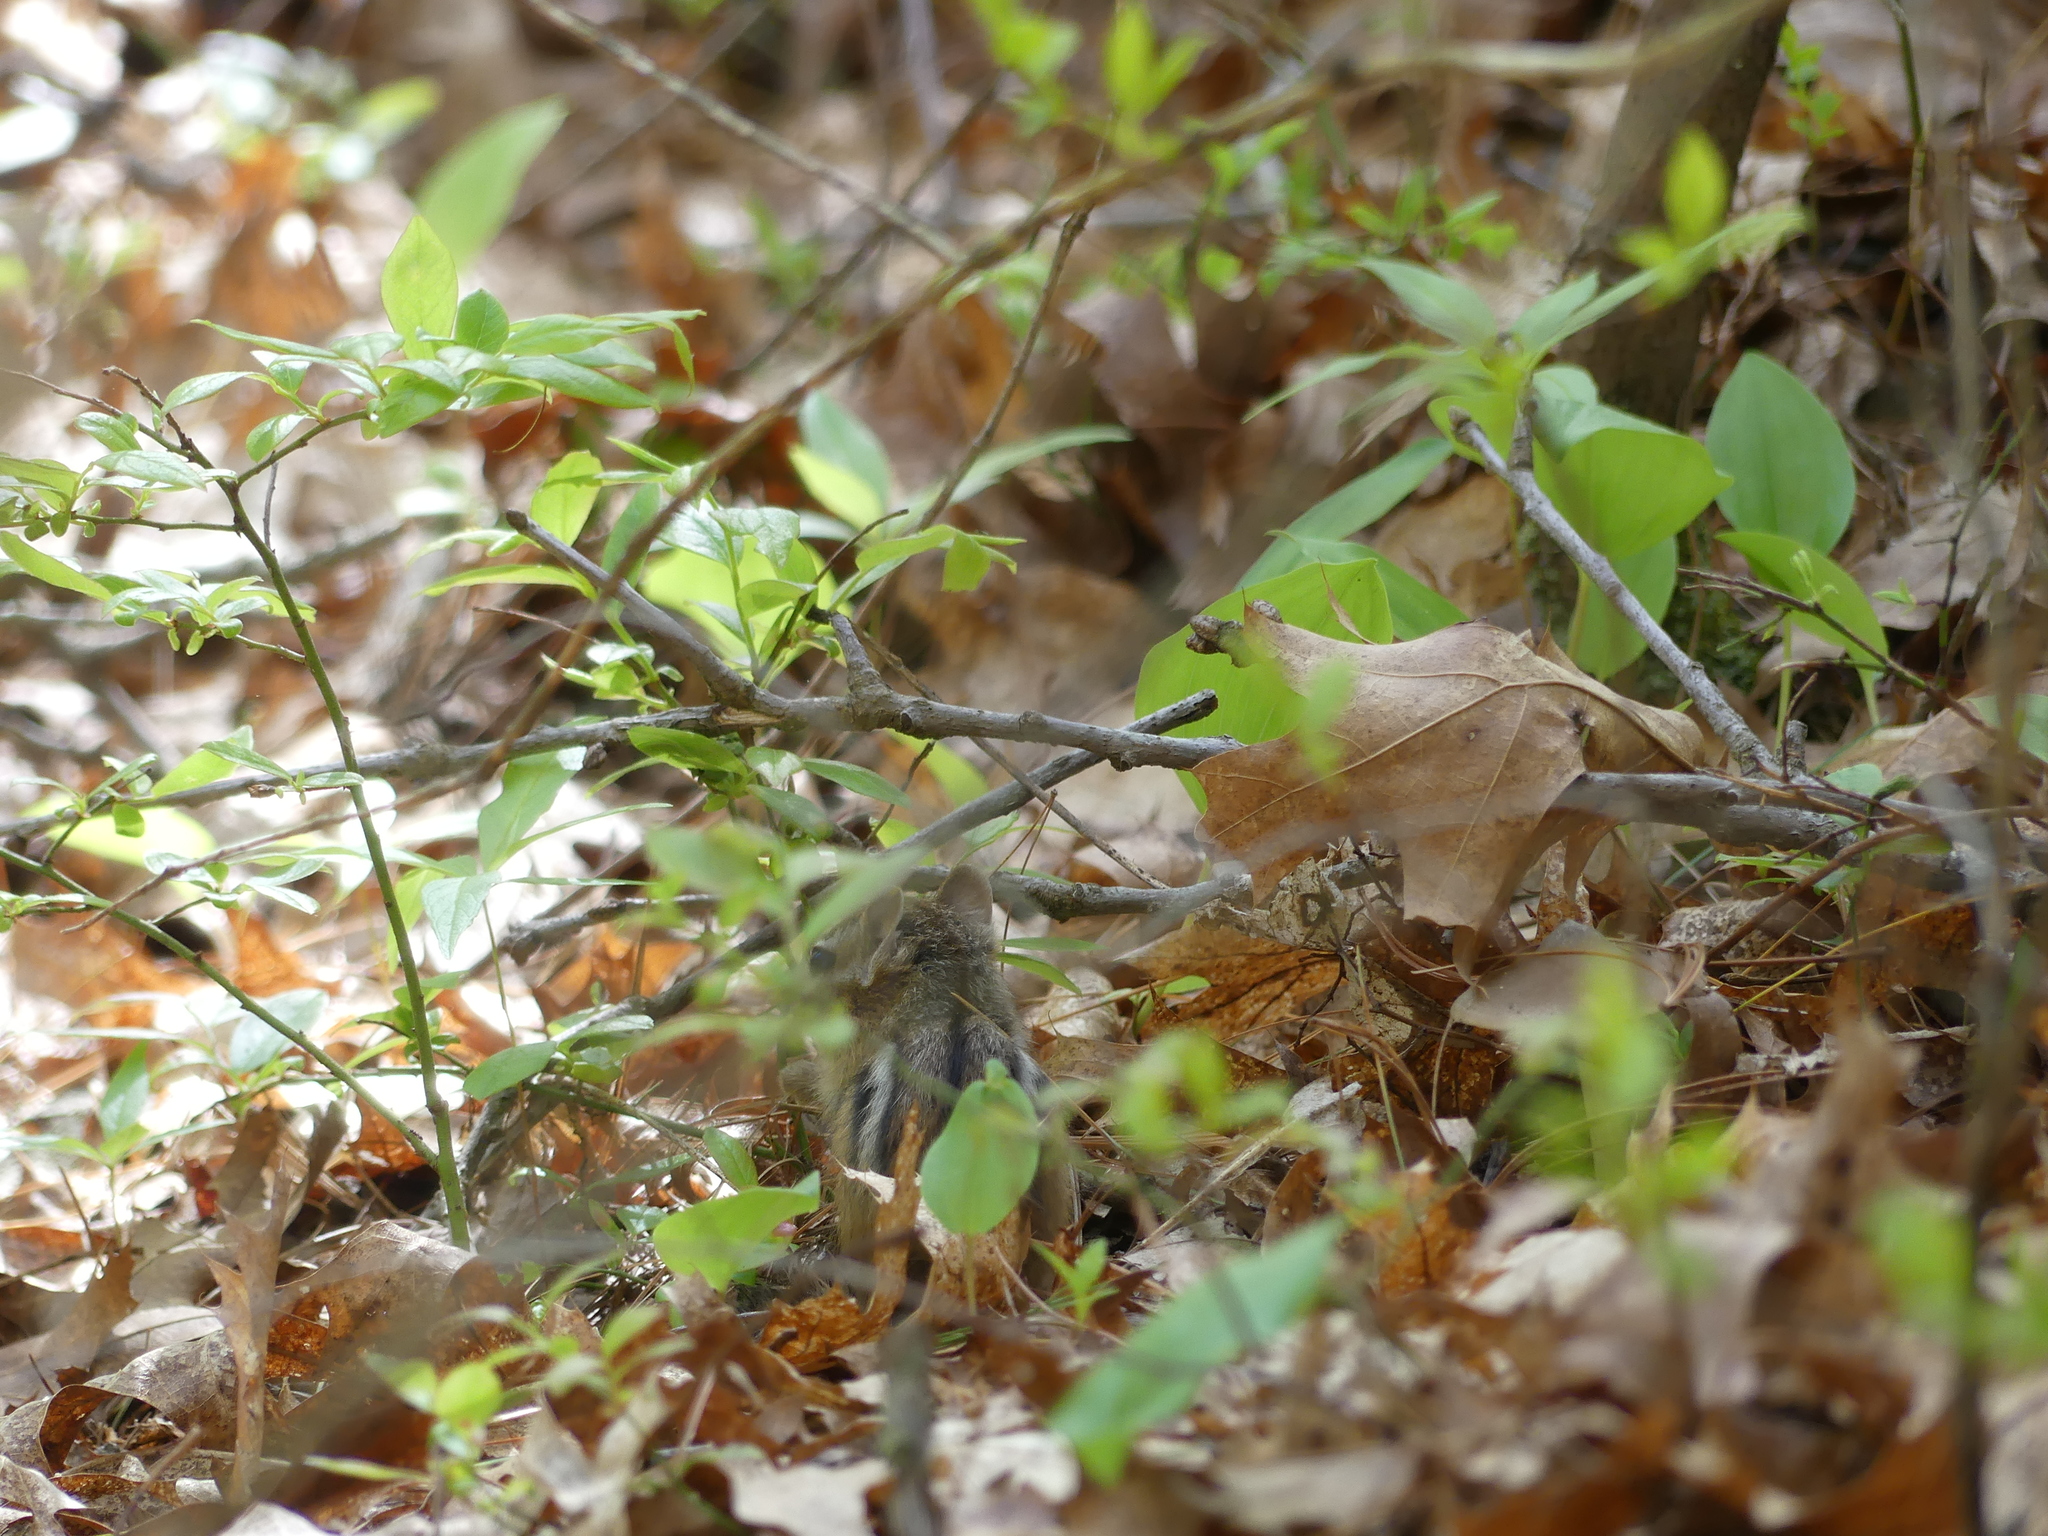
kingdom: Animalia
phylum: Chordata
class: Mammalia
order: Rodentia
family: Sciuridae
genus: Tamias
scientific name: Tamias striatus
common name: Eastern chipmunk
